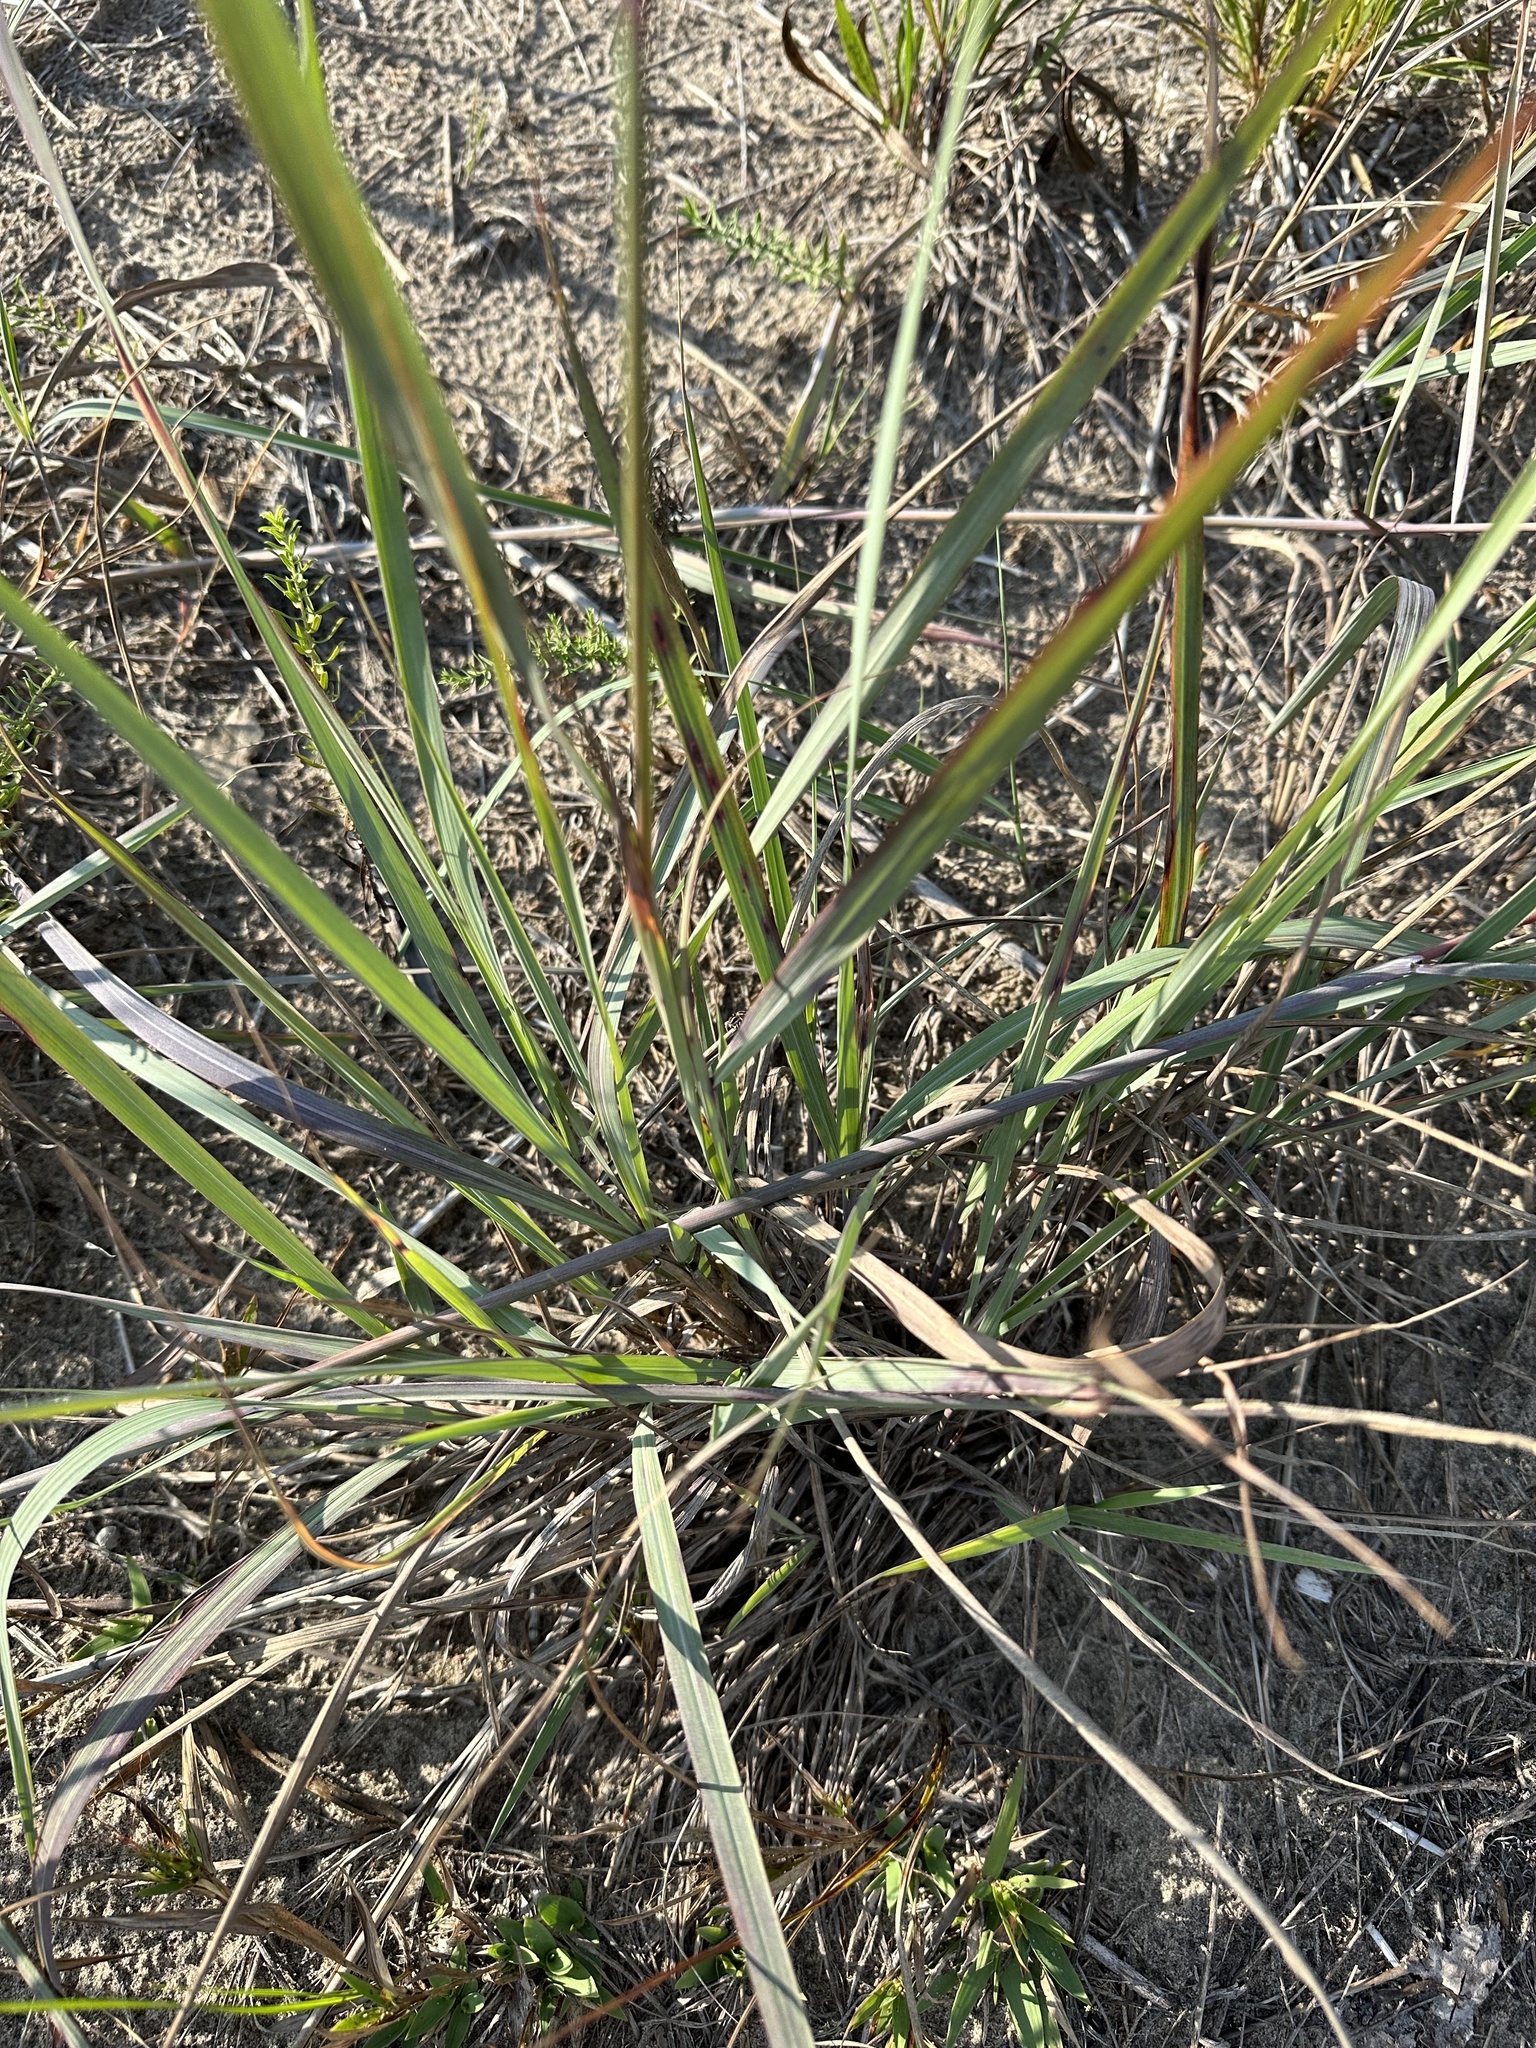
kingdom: Plantae
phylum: Tracheophyta
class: Liliopsida
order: Poales
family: Poaceae
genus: Sorghastrum
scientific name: Sorghastrum nutans
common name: Indian grass
